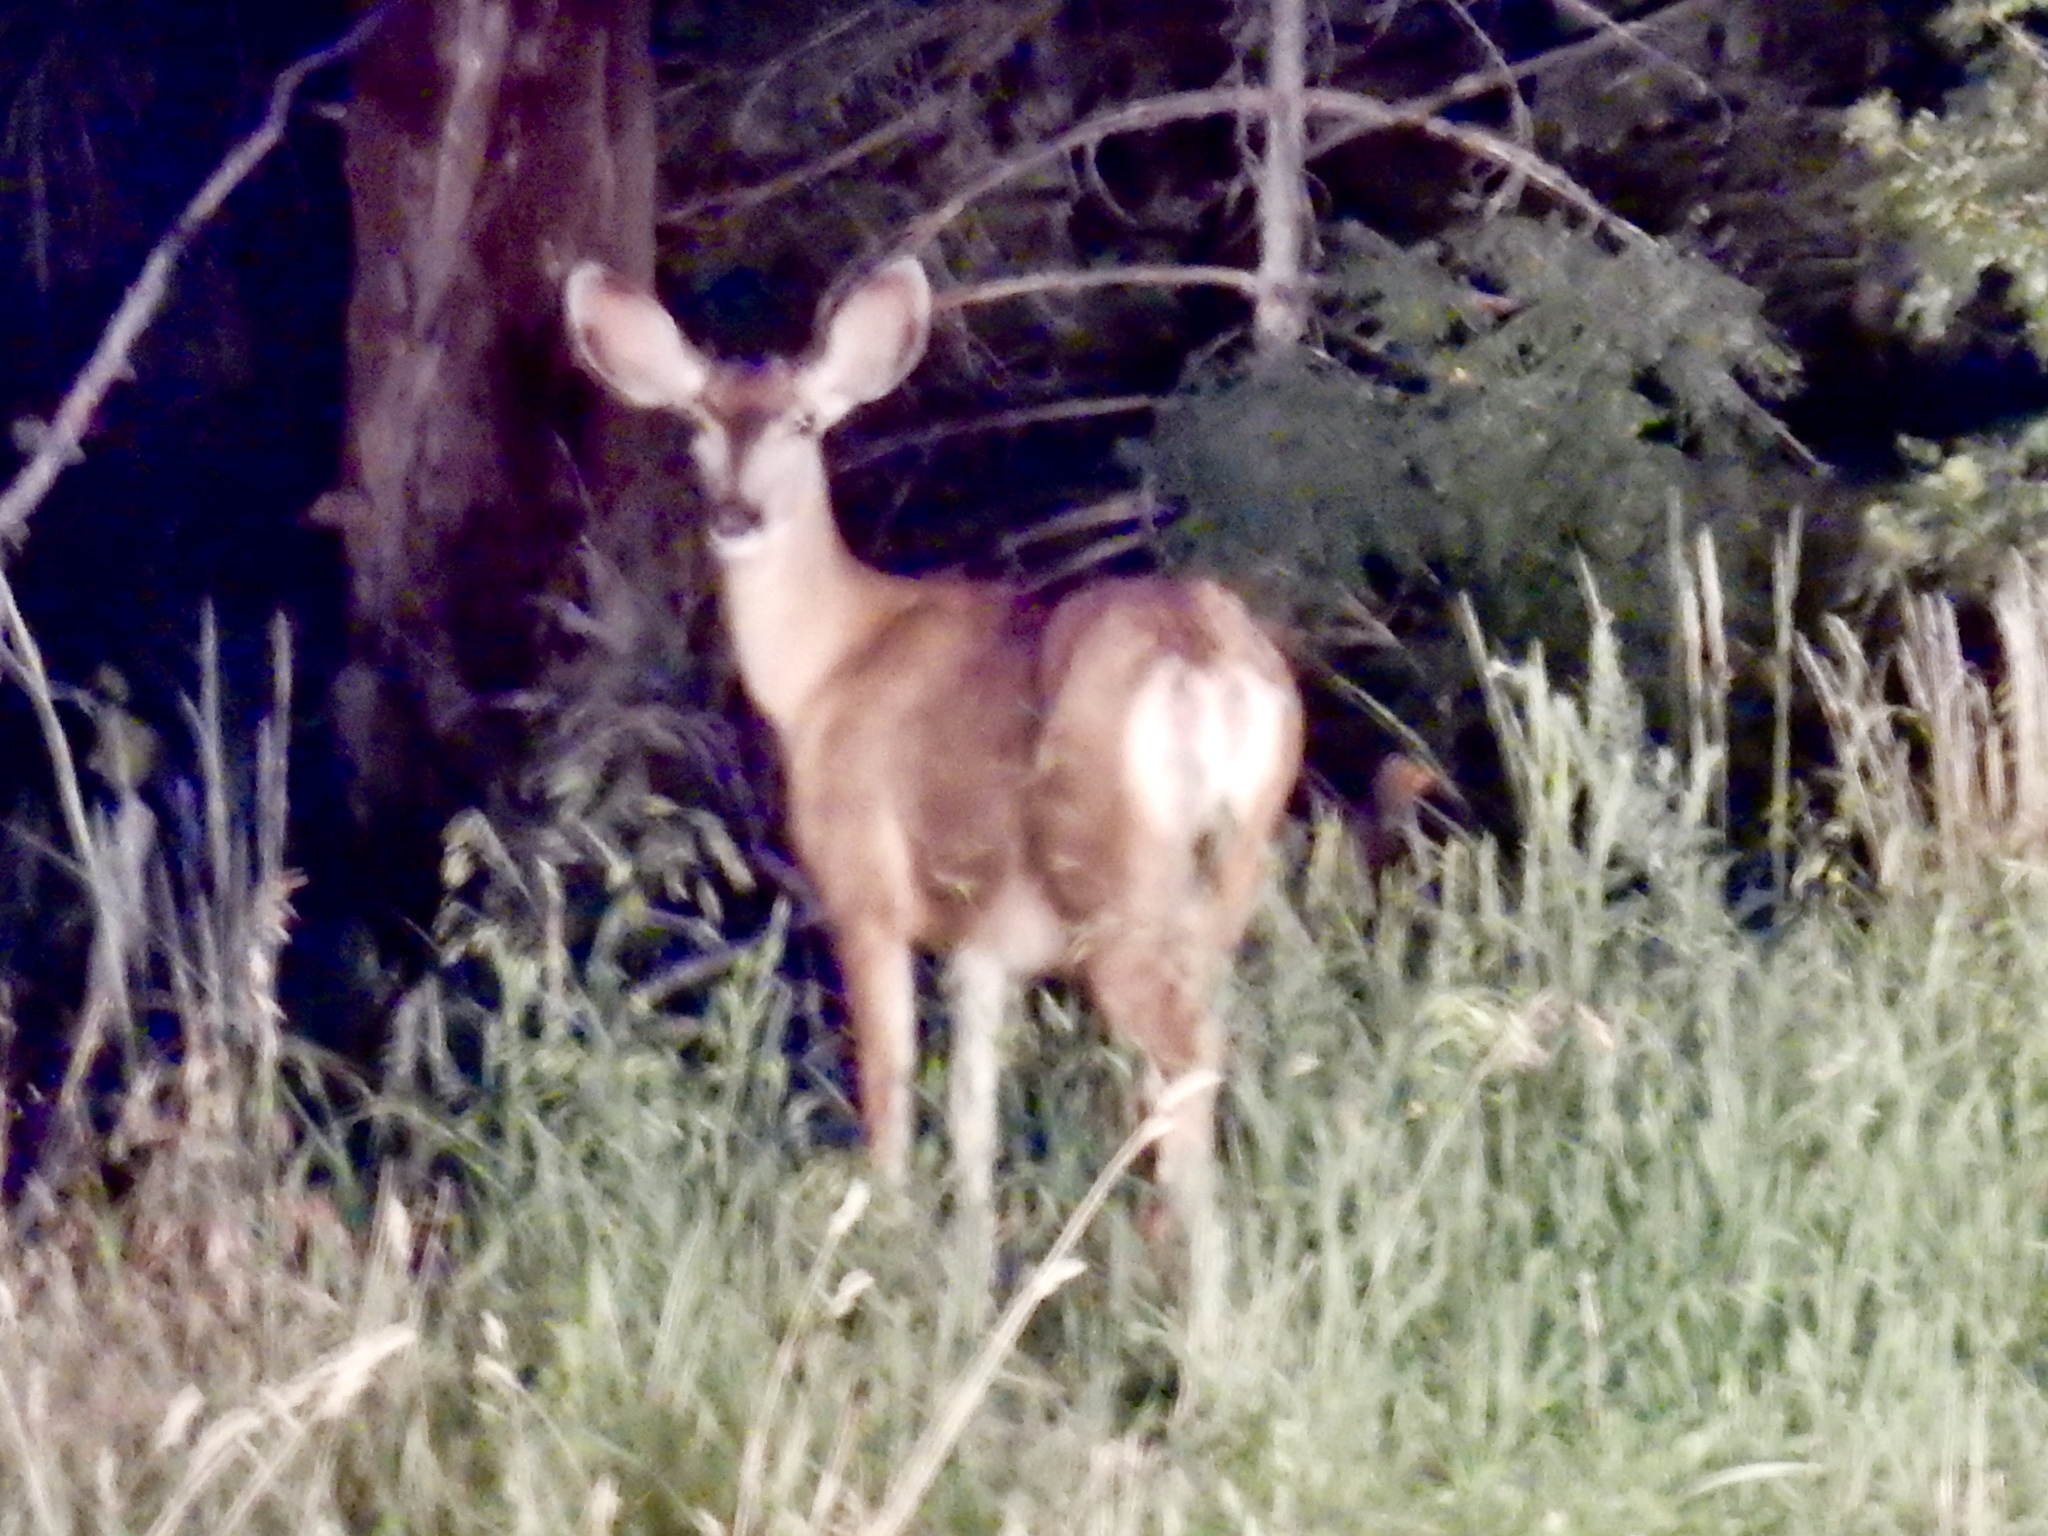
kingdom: Animalia
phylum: Chordata
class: Mammalia
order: Artiodactyla
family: Cervidae
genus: Odocoileus
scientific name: Odocoileus hemionus
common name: Mule deer
